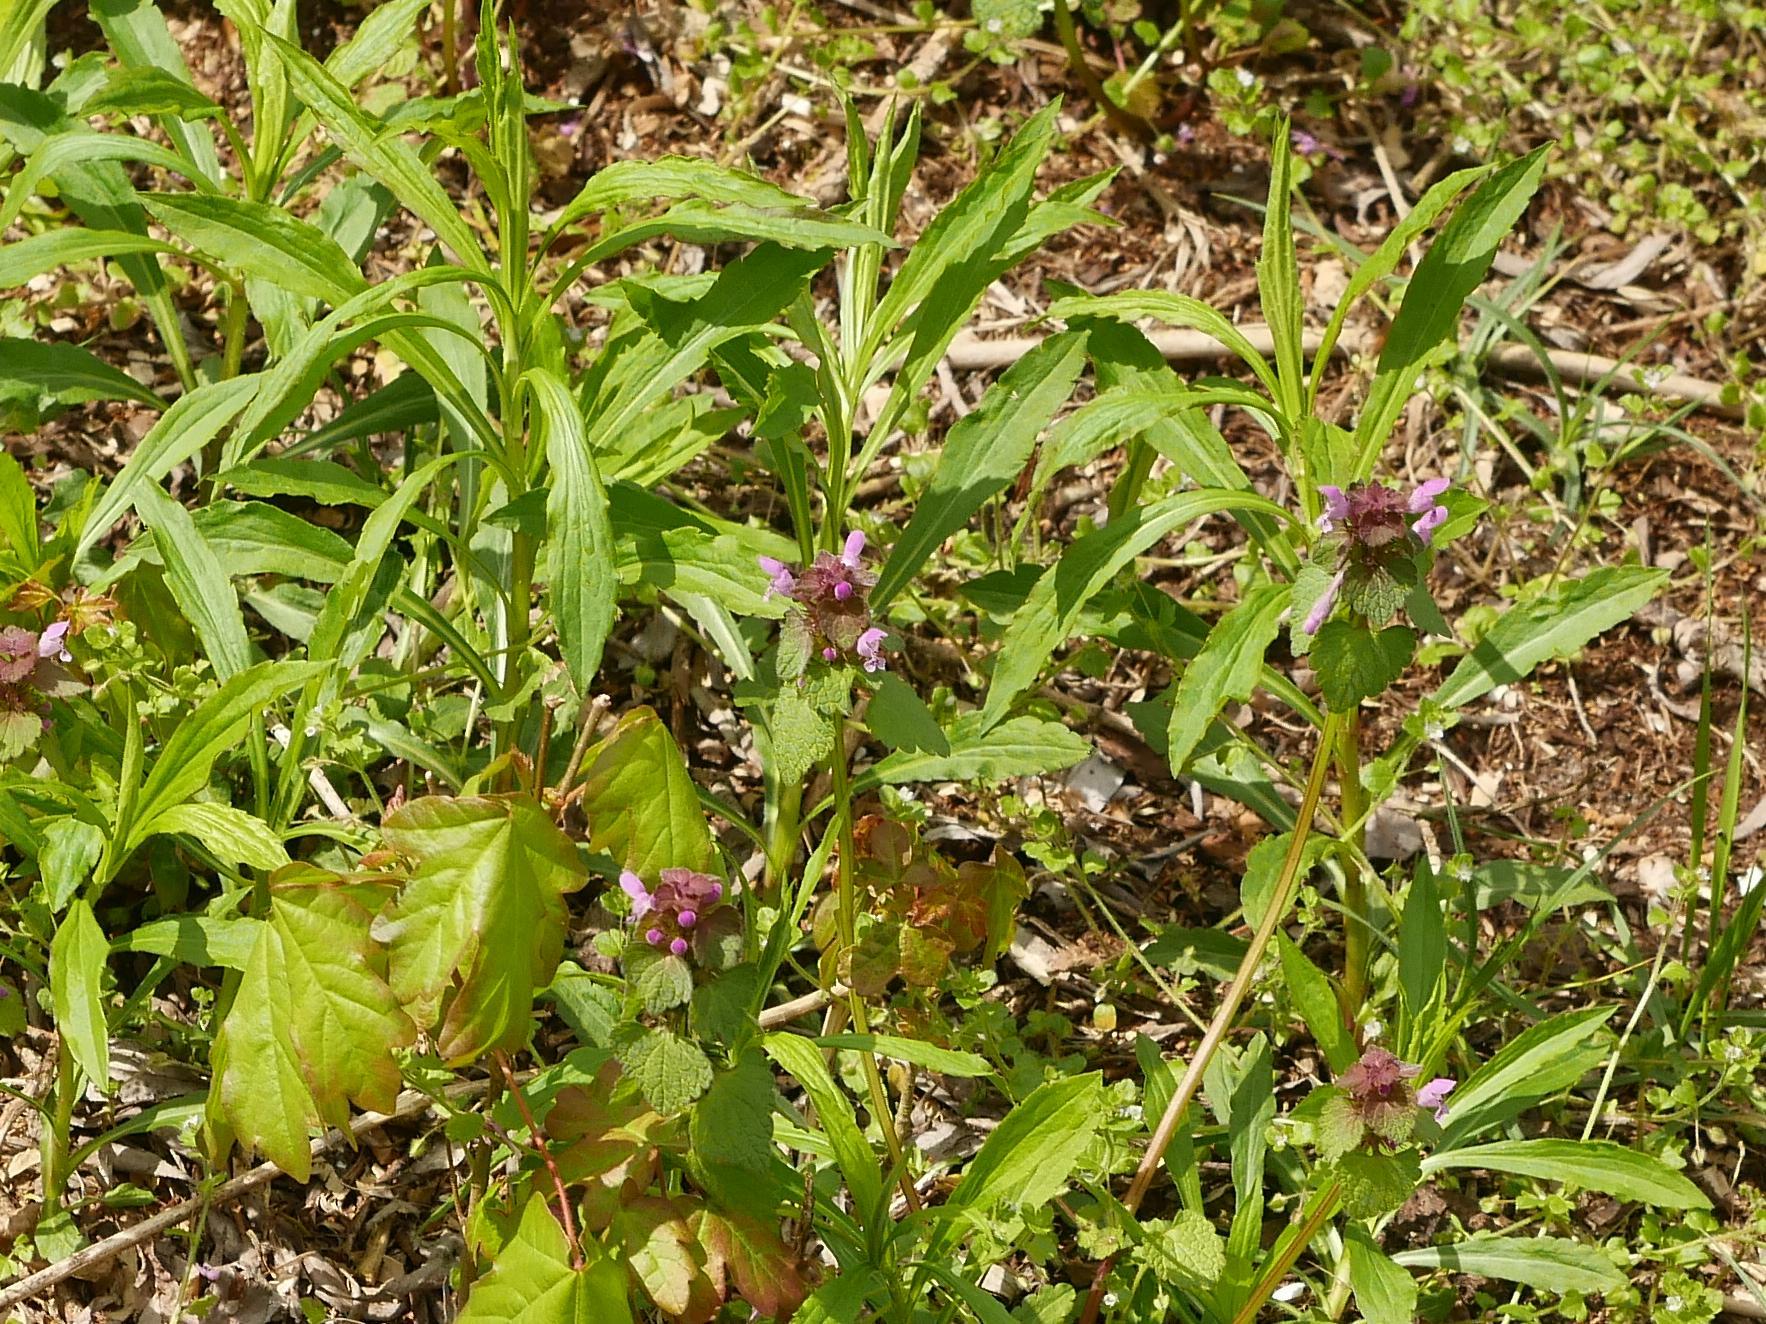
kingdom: Plantae
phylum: Tracheophyta
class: Magnoliopsida
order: Lamiales
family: Lamiaceae
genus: Lamium
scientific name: Lamium purpureum
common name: Red dead-nettle
